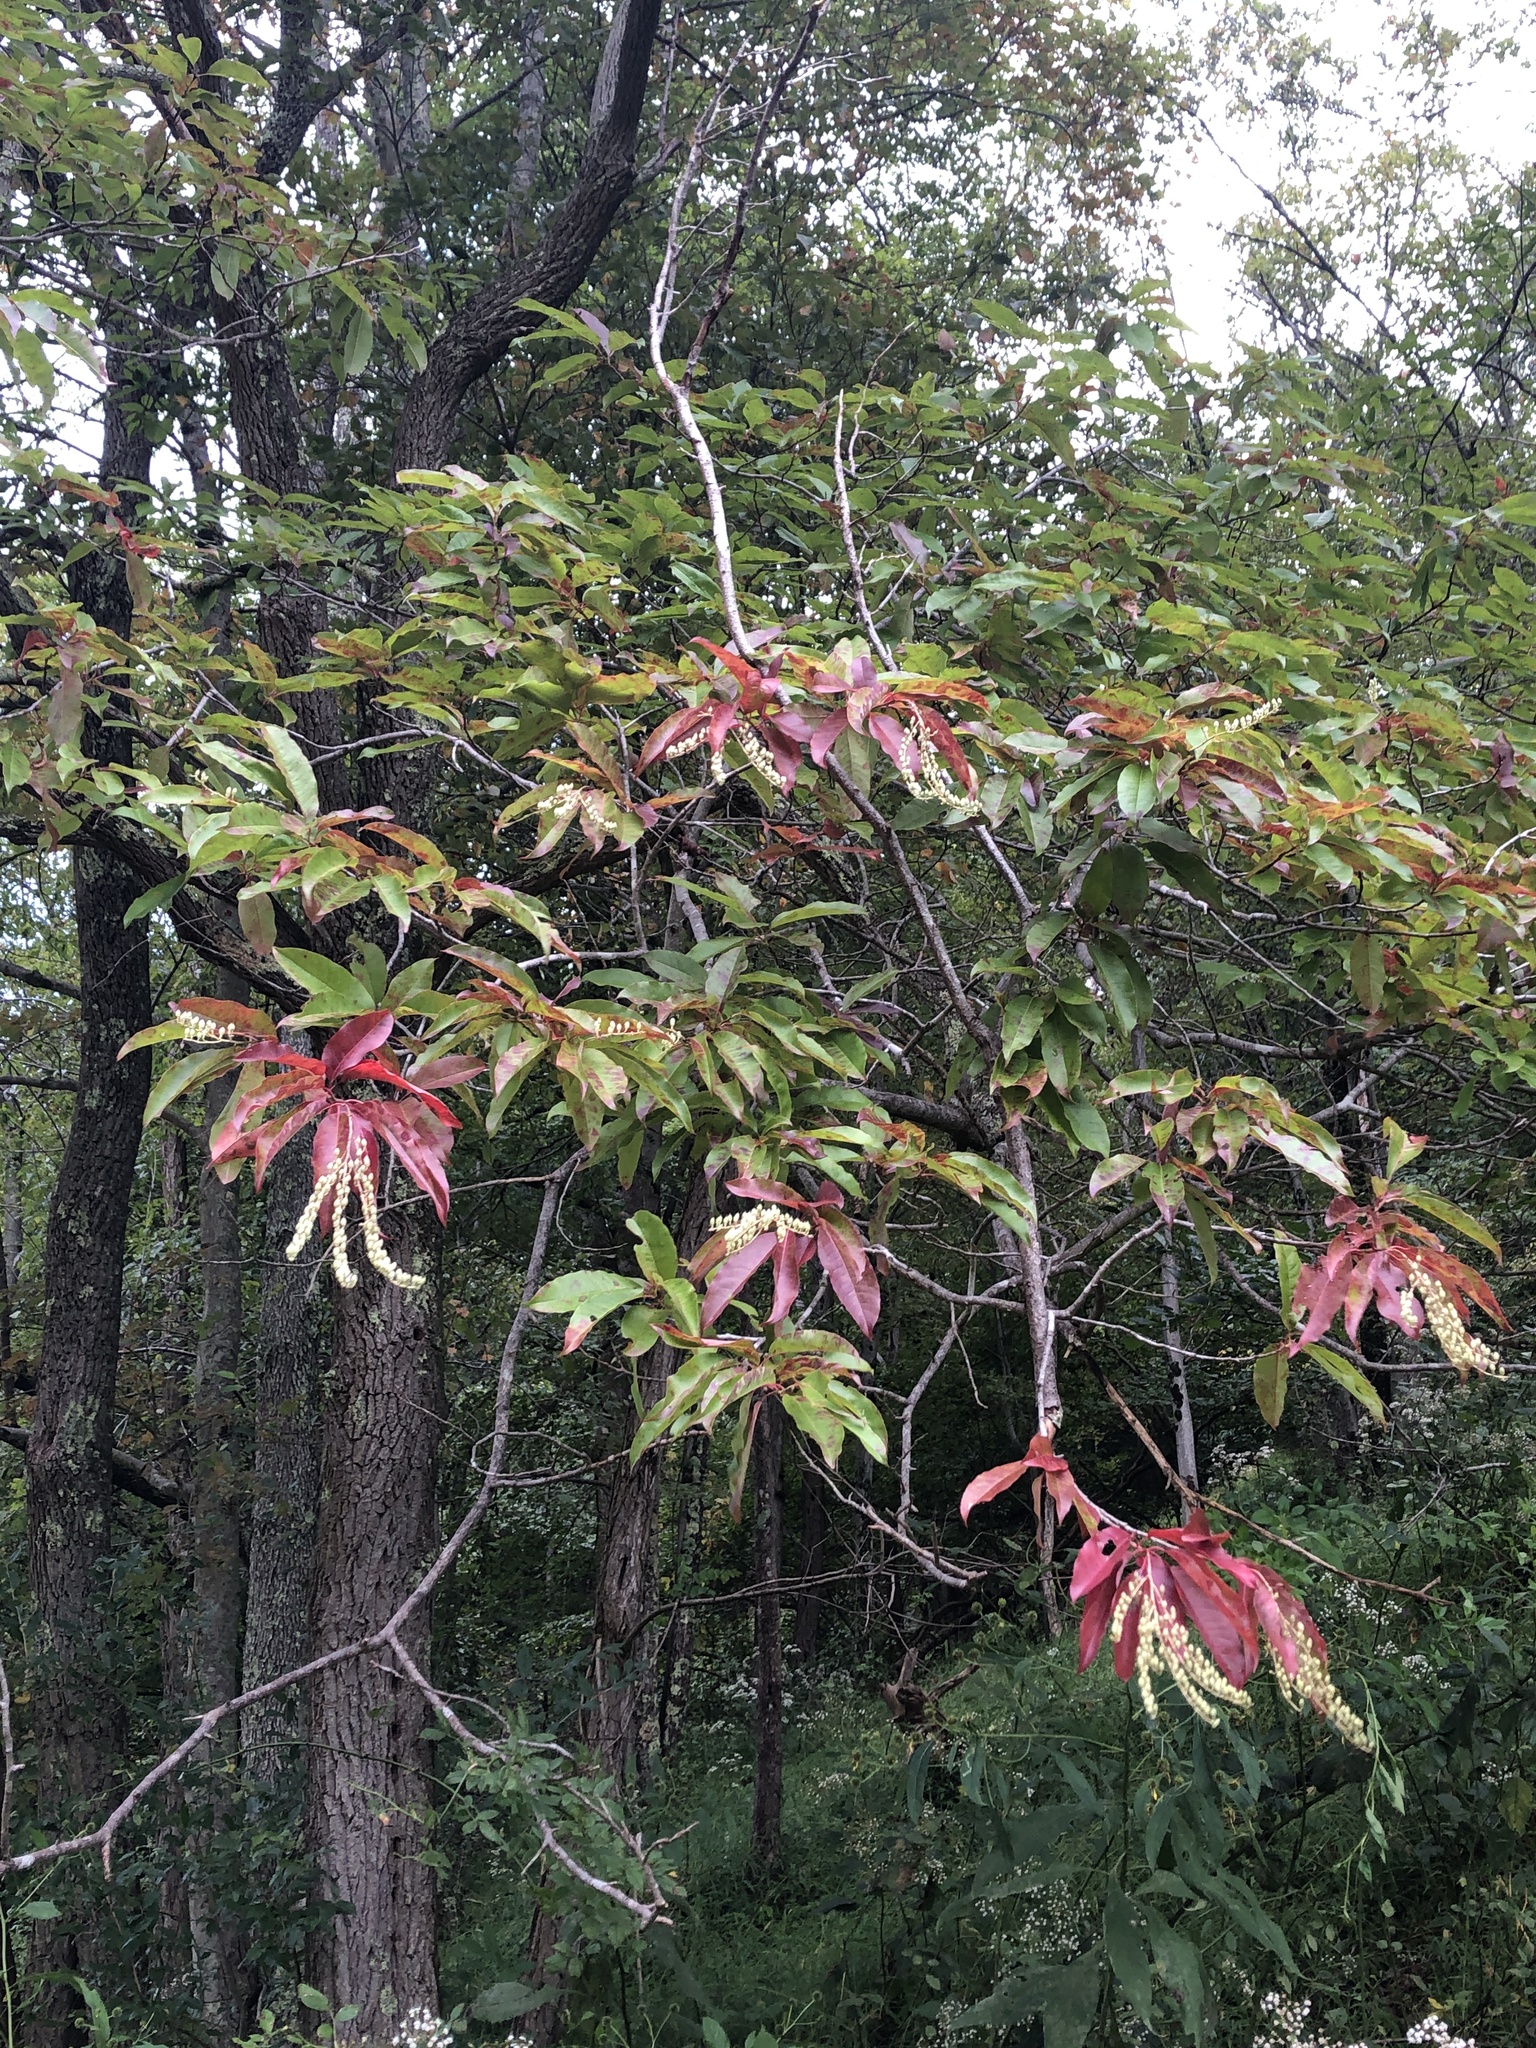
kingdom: Plantae
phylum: Tracheophyta
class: Magnoliopsida
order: Ericales
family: Ericaceae
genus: Oxydendrum
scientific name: Oxydendrum arboreum
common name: Sourwood
